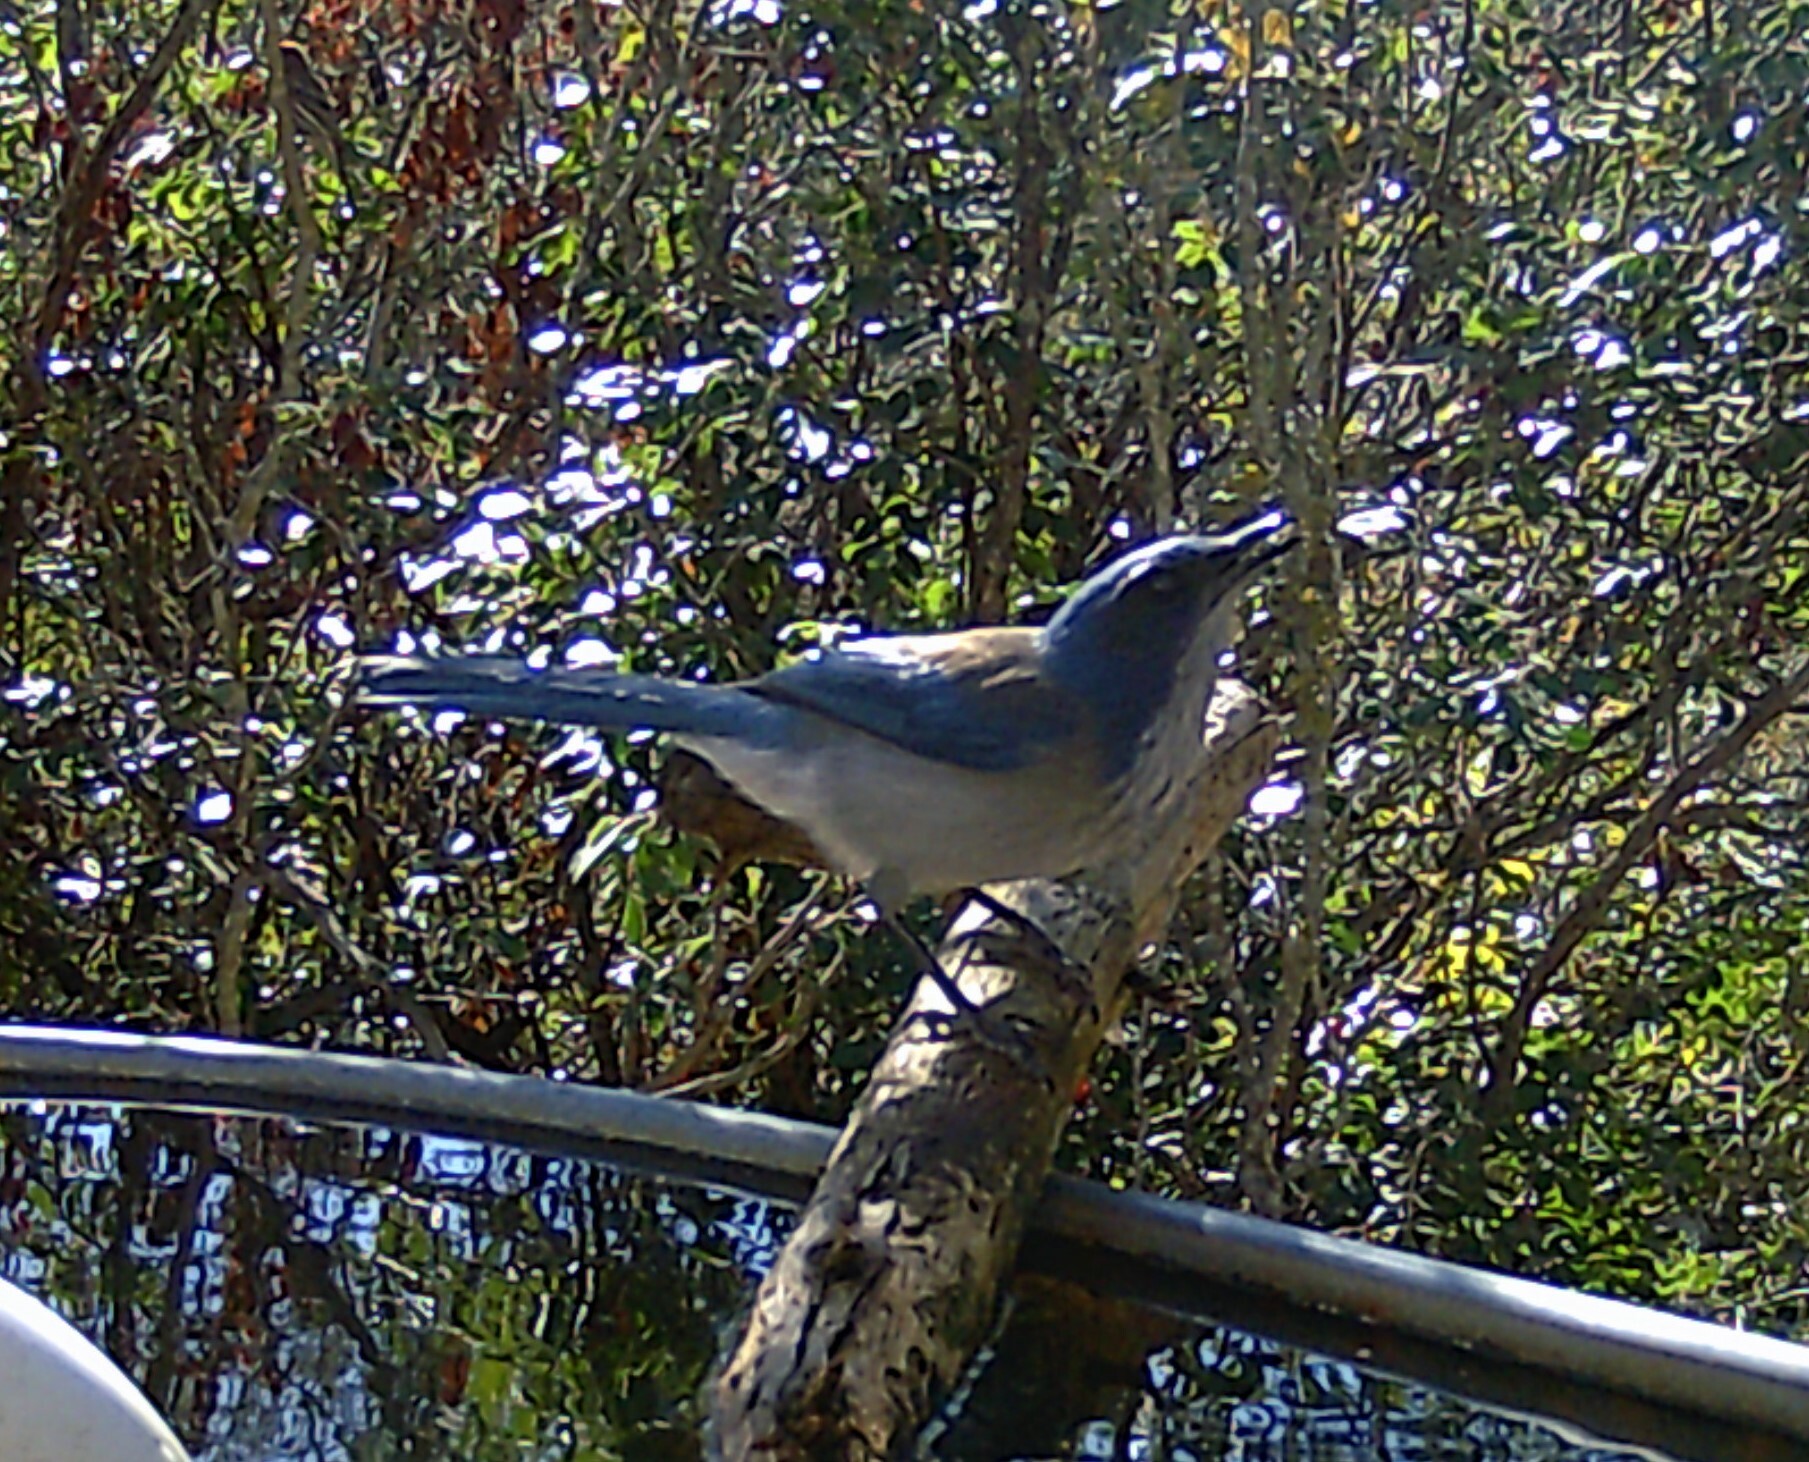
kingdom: Animalia
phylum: Chordata
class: Aves
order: Passeriformes
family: Corvidae
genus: Aphelocoma
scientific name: Aphelocoma woodhouseii
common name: Woodhouse's scrub-jay
